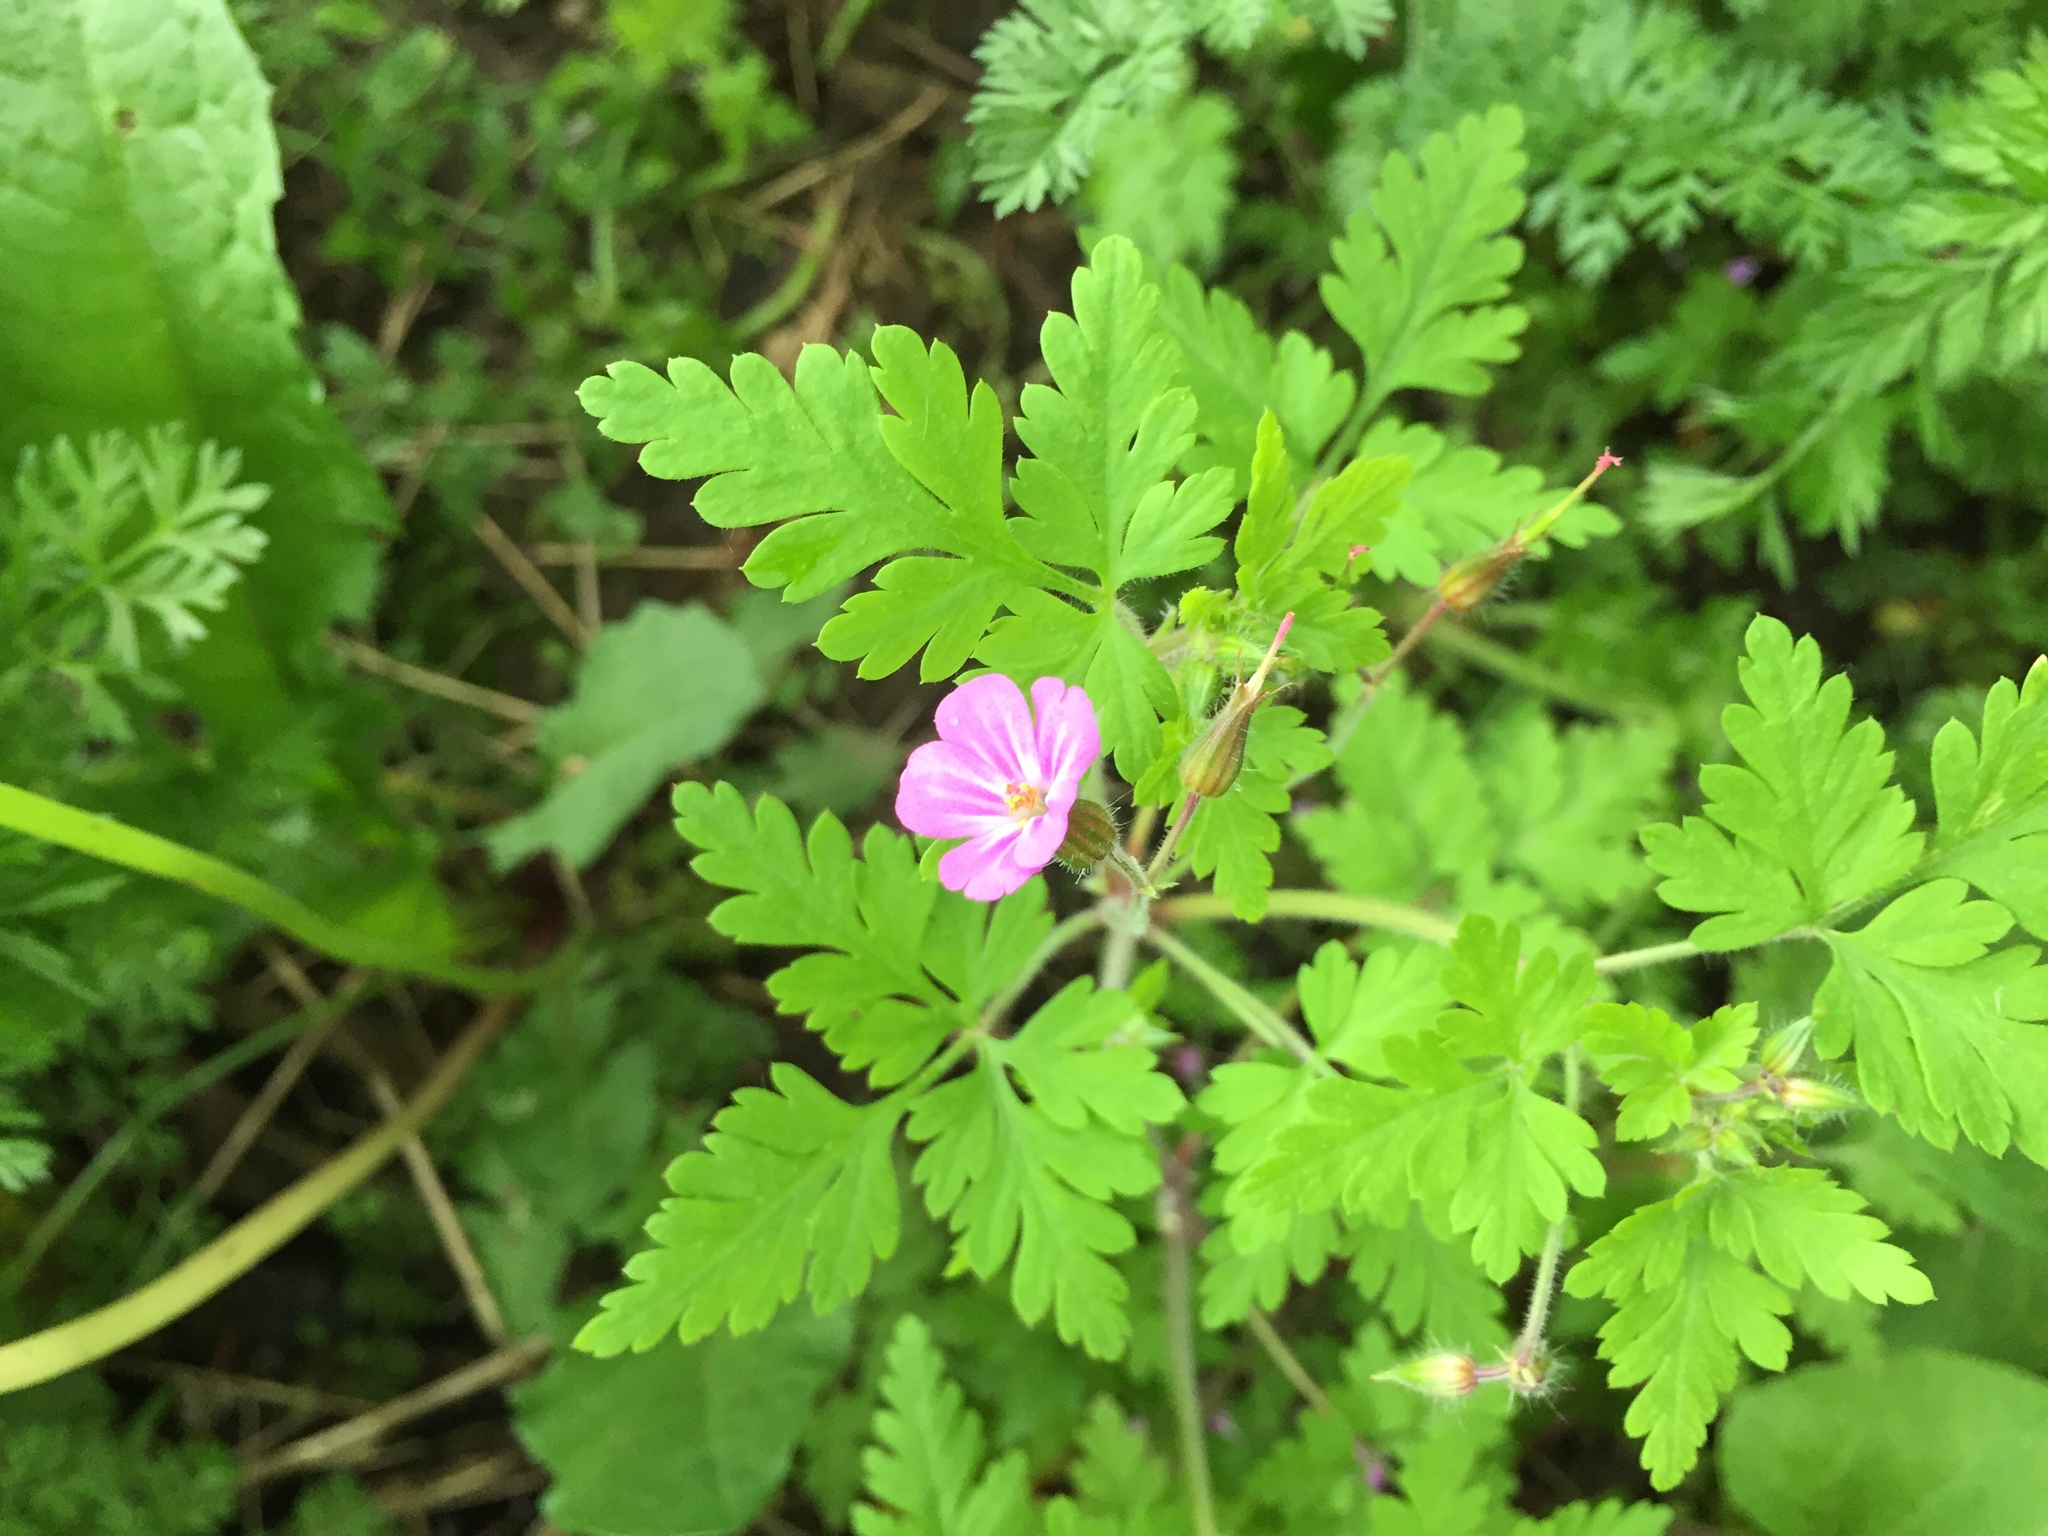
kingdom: Plantae
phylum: Tracheophyta
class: Magnoliopsida
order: Geraniales
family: Geraniaceae
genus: Geranium
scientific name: Geranium robertianum
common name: Herb-robert
